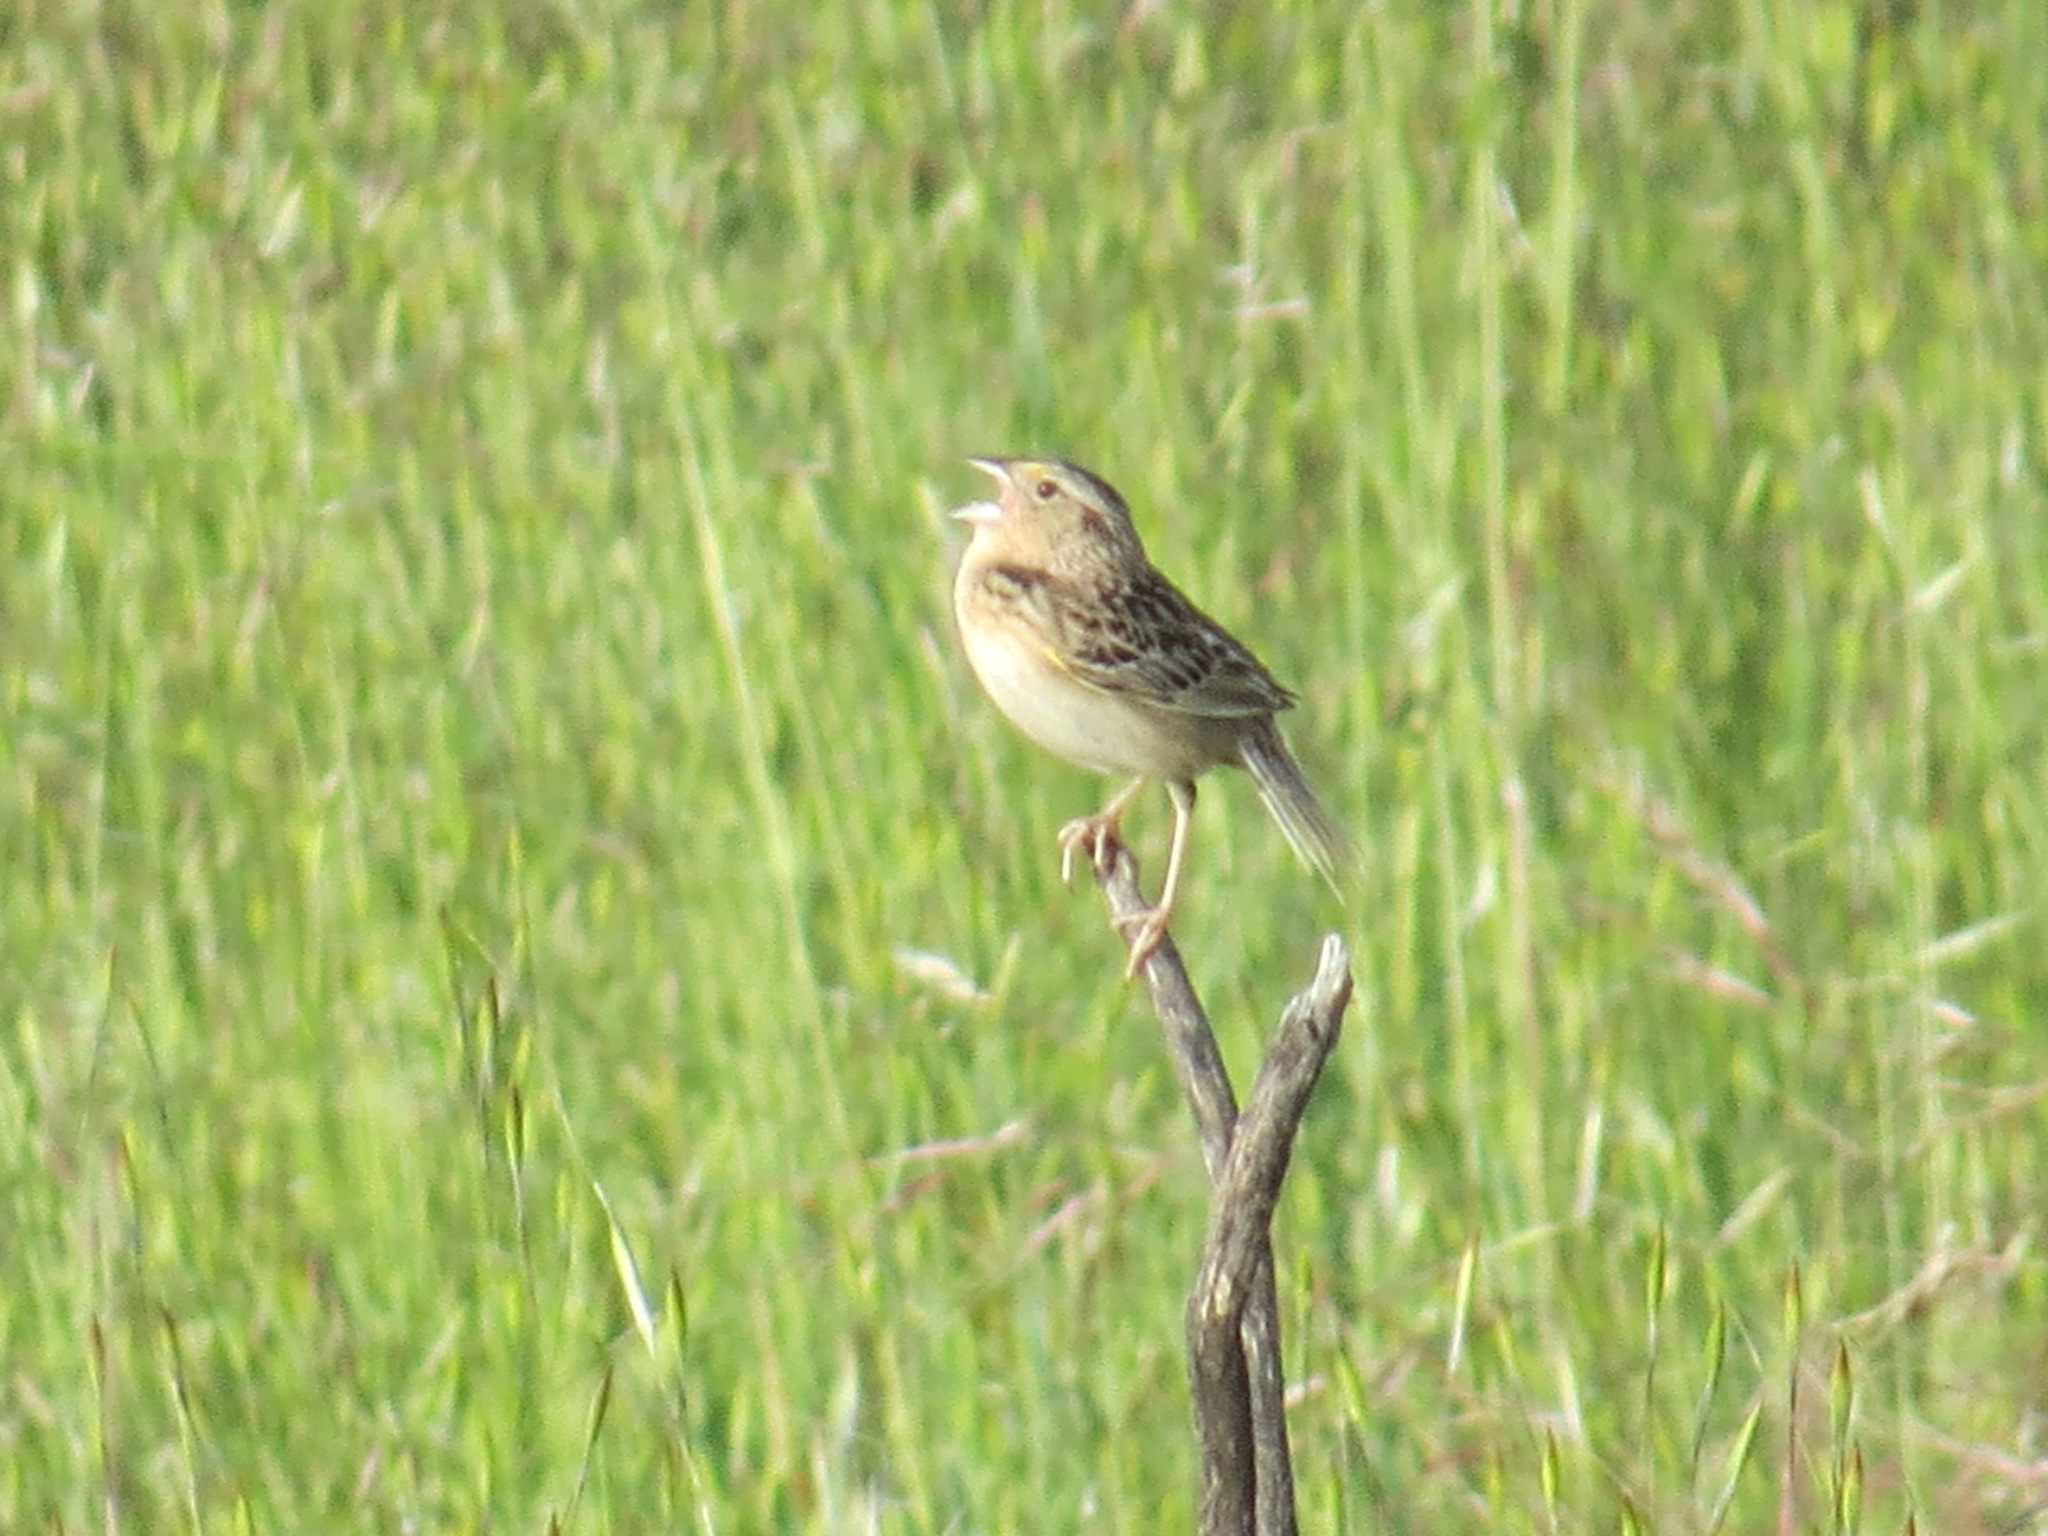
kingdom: Animalia
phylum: Chordata
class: Aves
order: Passeriformes
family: Passerellidae
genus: Ammodramus
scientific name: Ammodramus savannarum
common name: Grasshopper sparrow
